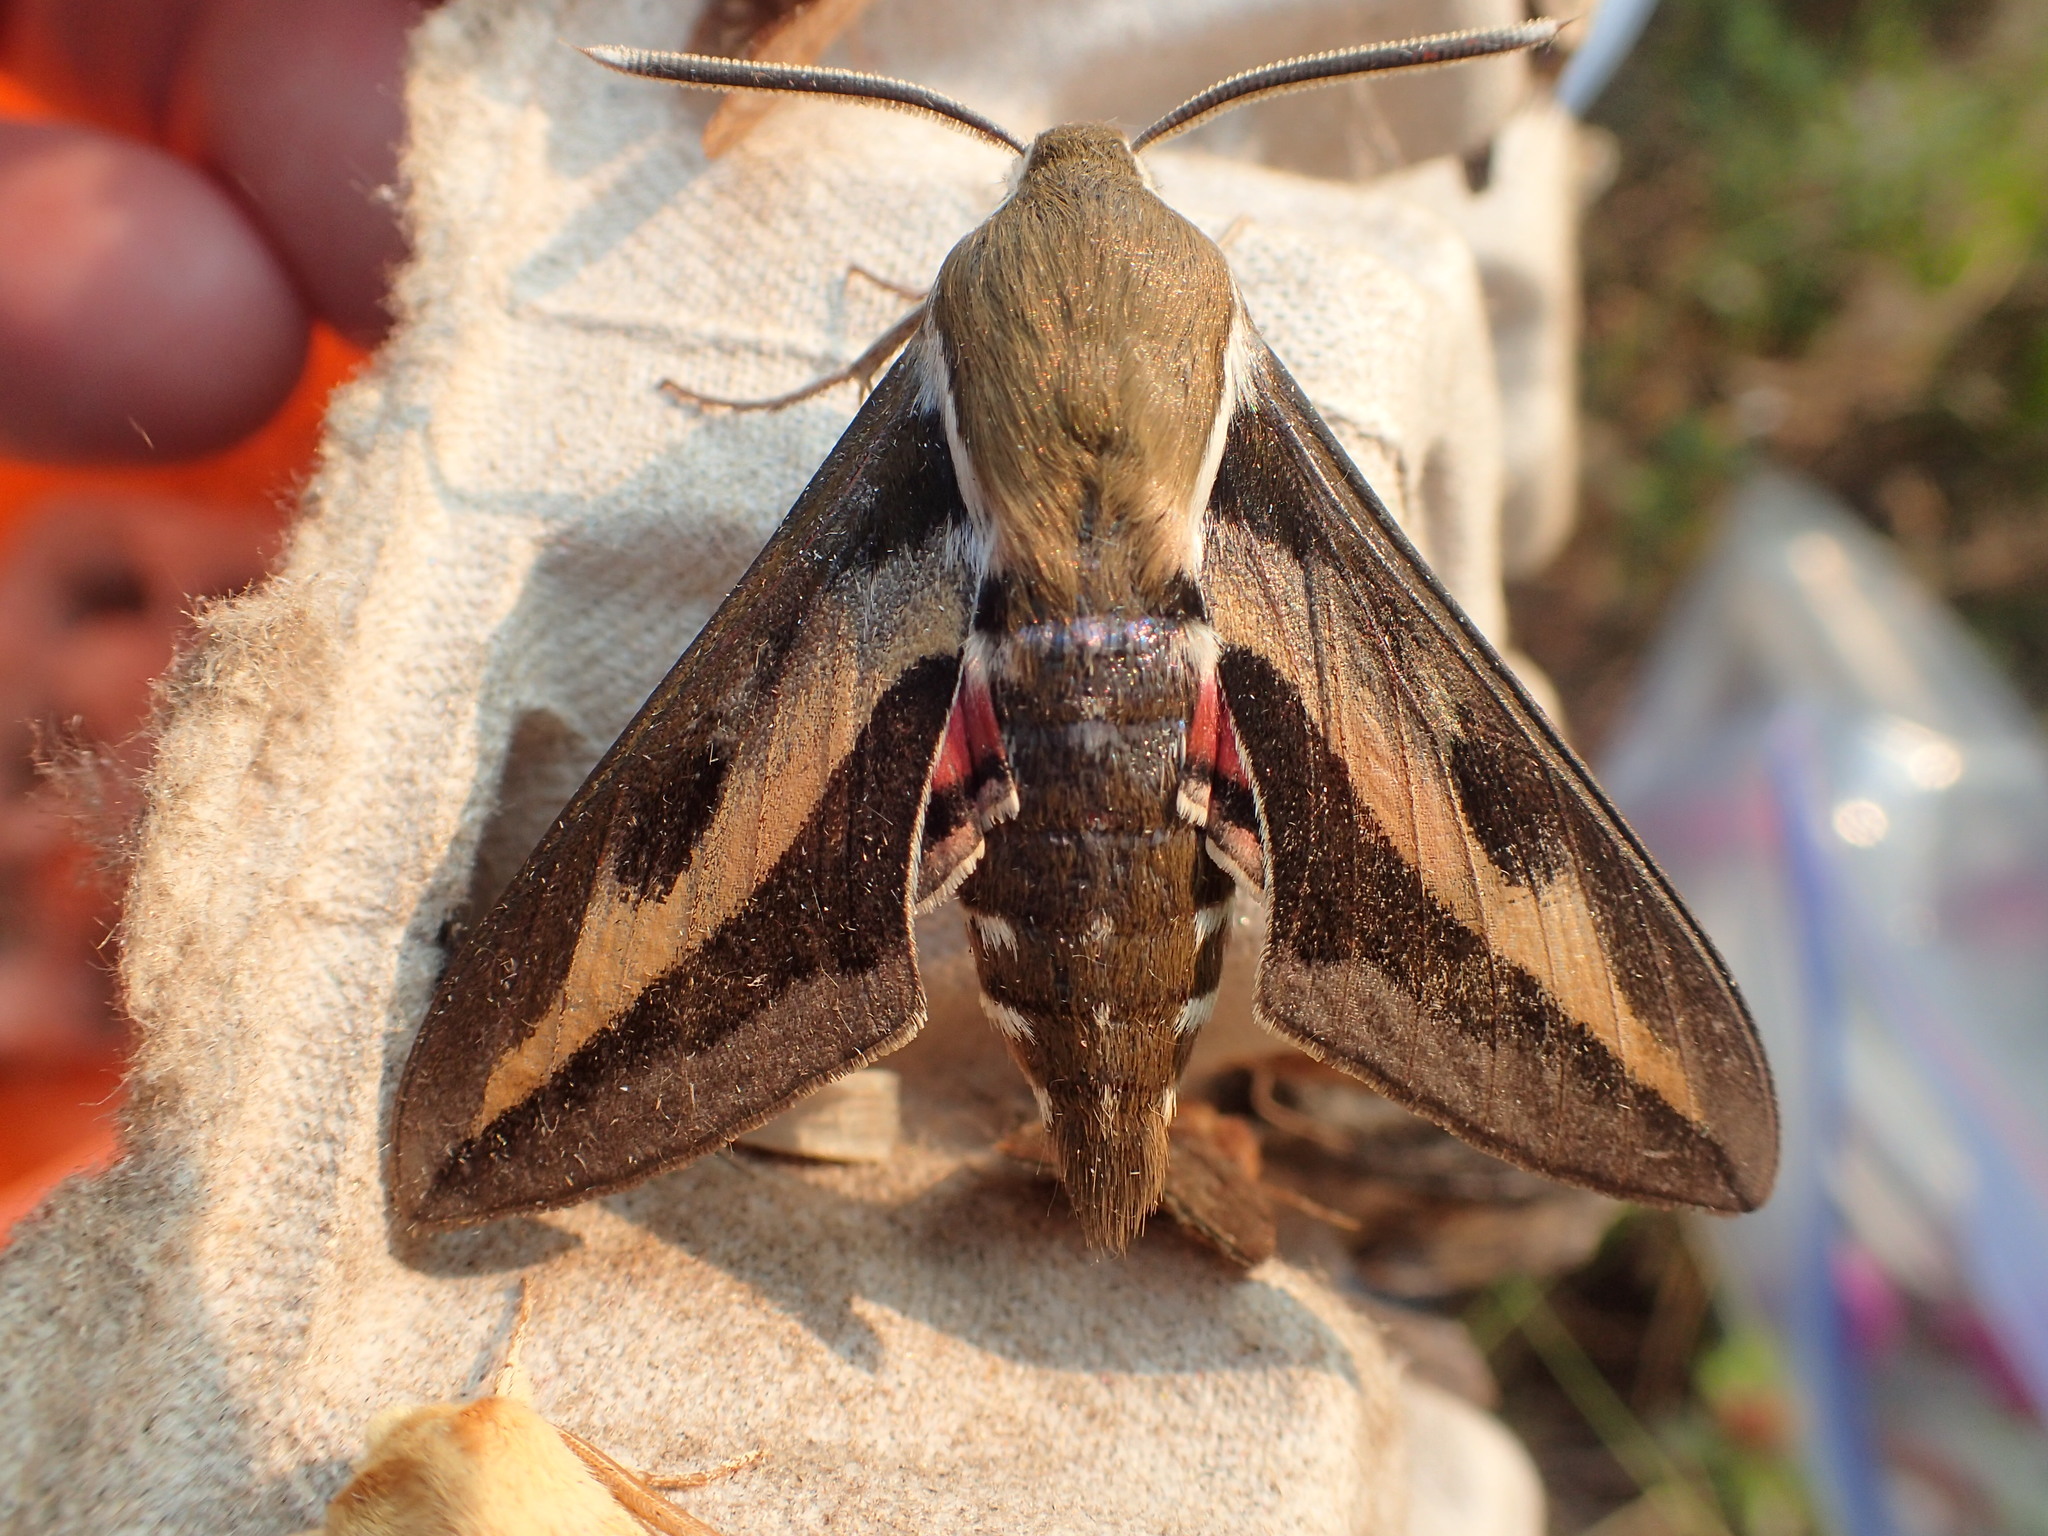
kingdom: Animalia
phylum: Arthropoda
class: Insecta
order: Lepidoptera
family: Sphingidae
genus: Hyles
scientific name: Hyles gallii
